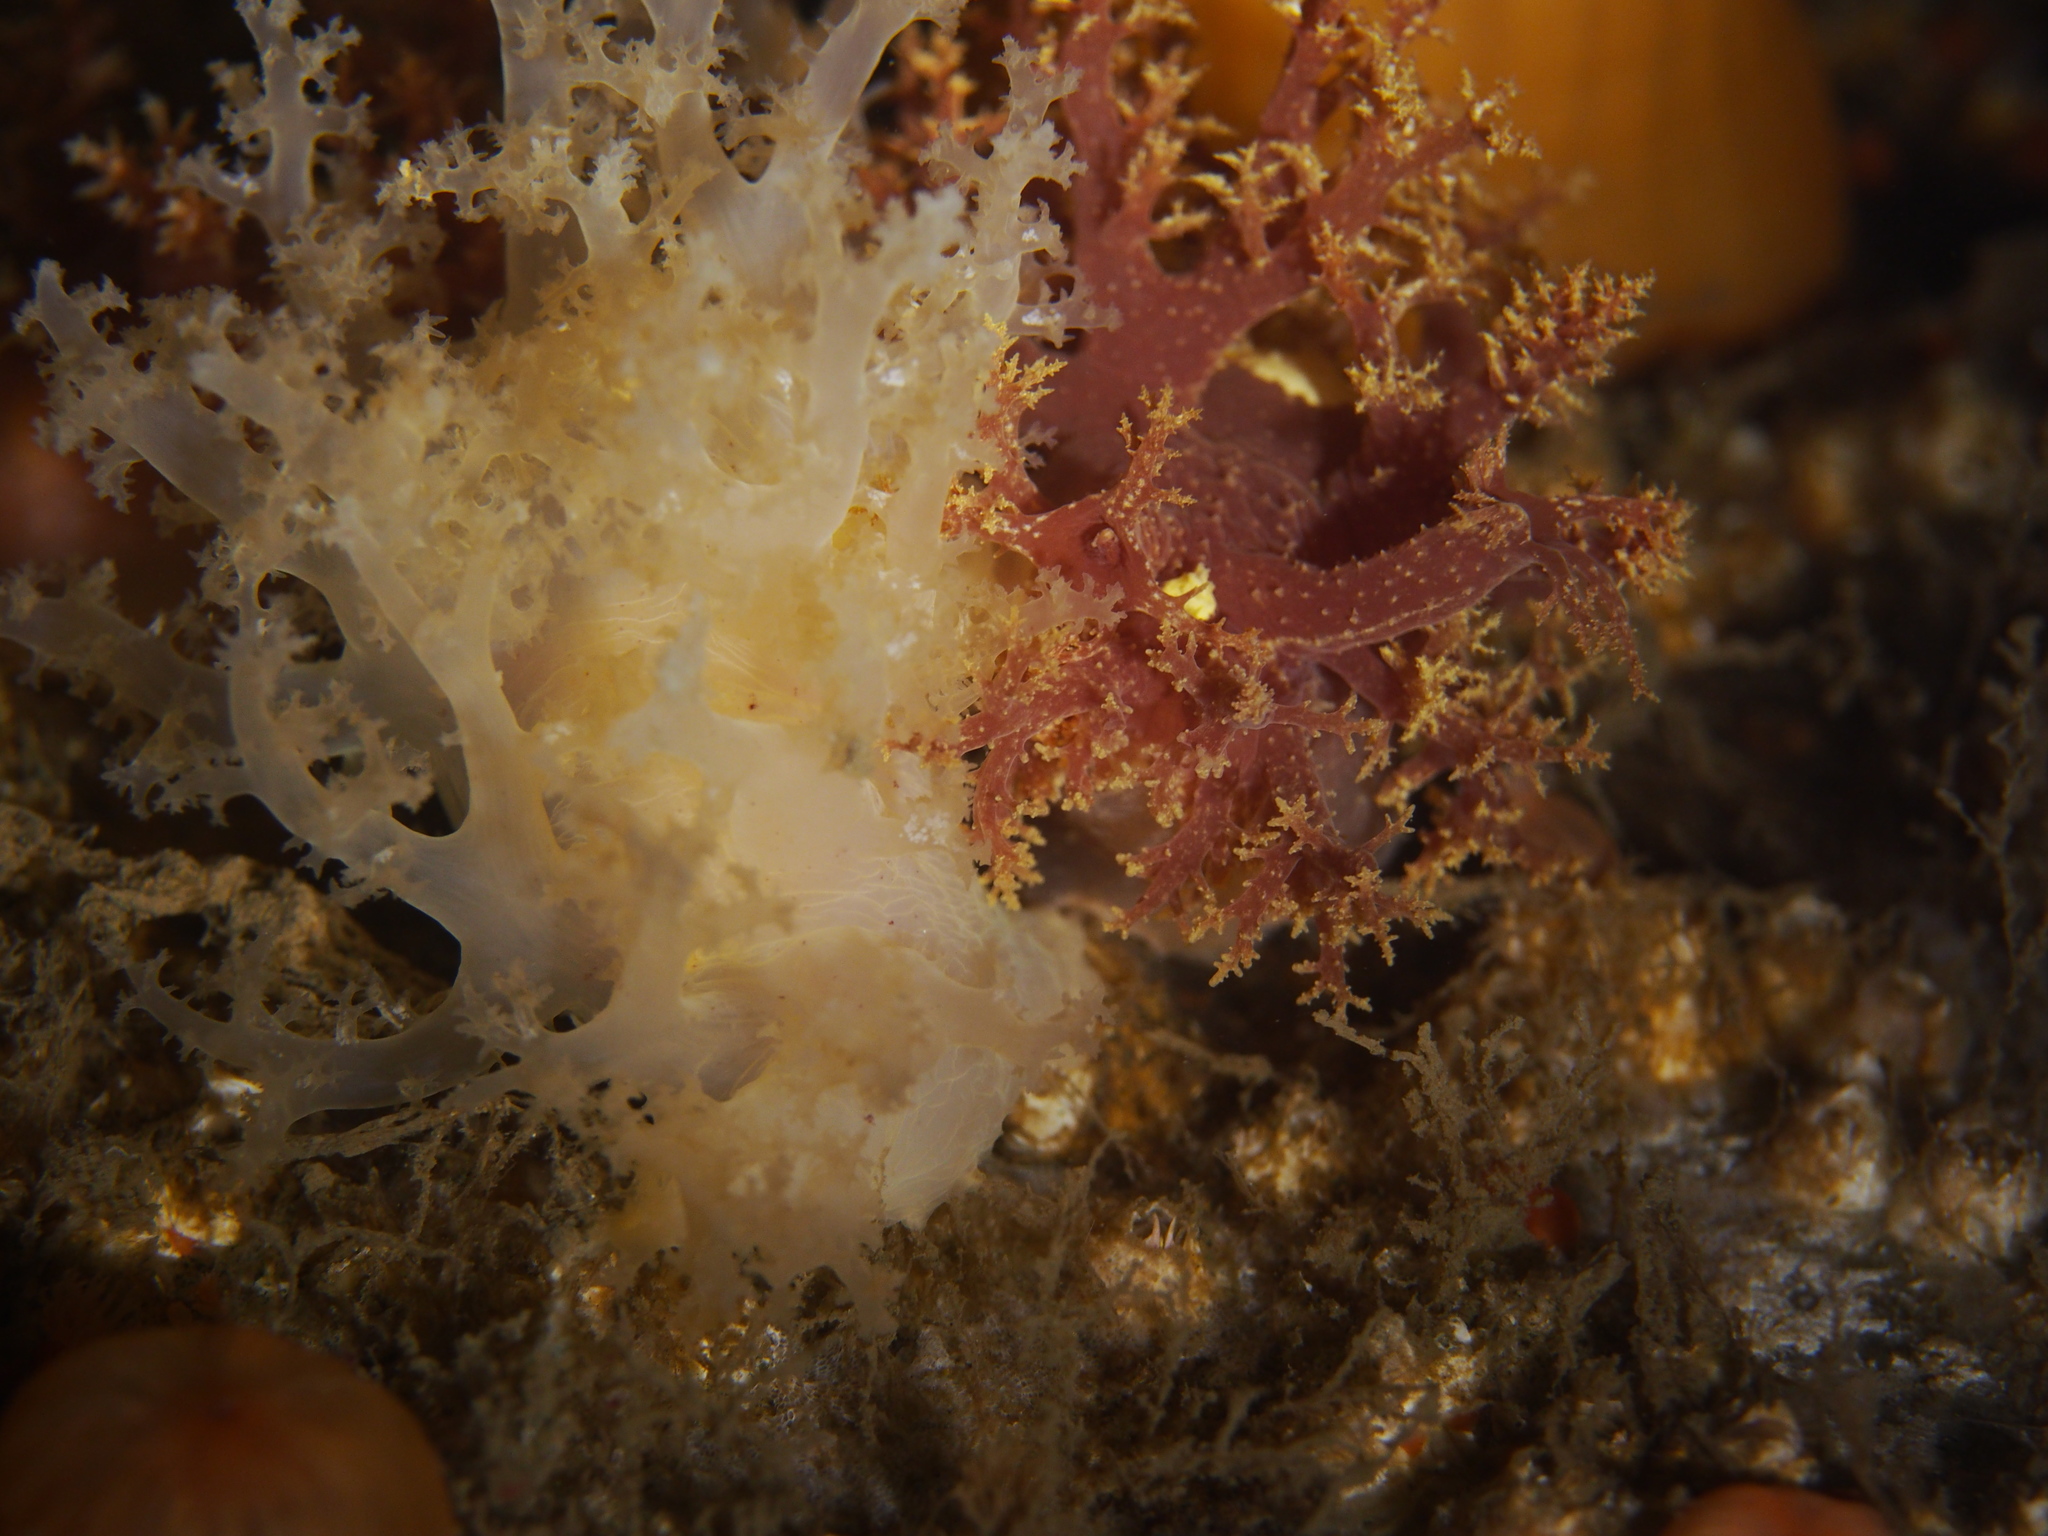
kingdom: Animalia
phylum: Mollusca
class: Gastropoda
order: Nudibranchia
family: Dendronotidae
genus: Dendronotus
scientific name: Dendronotus lacteus
